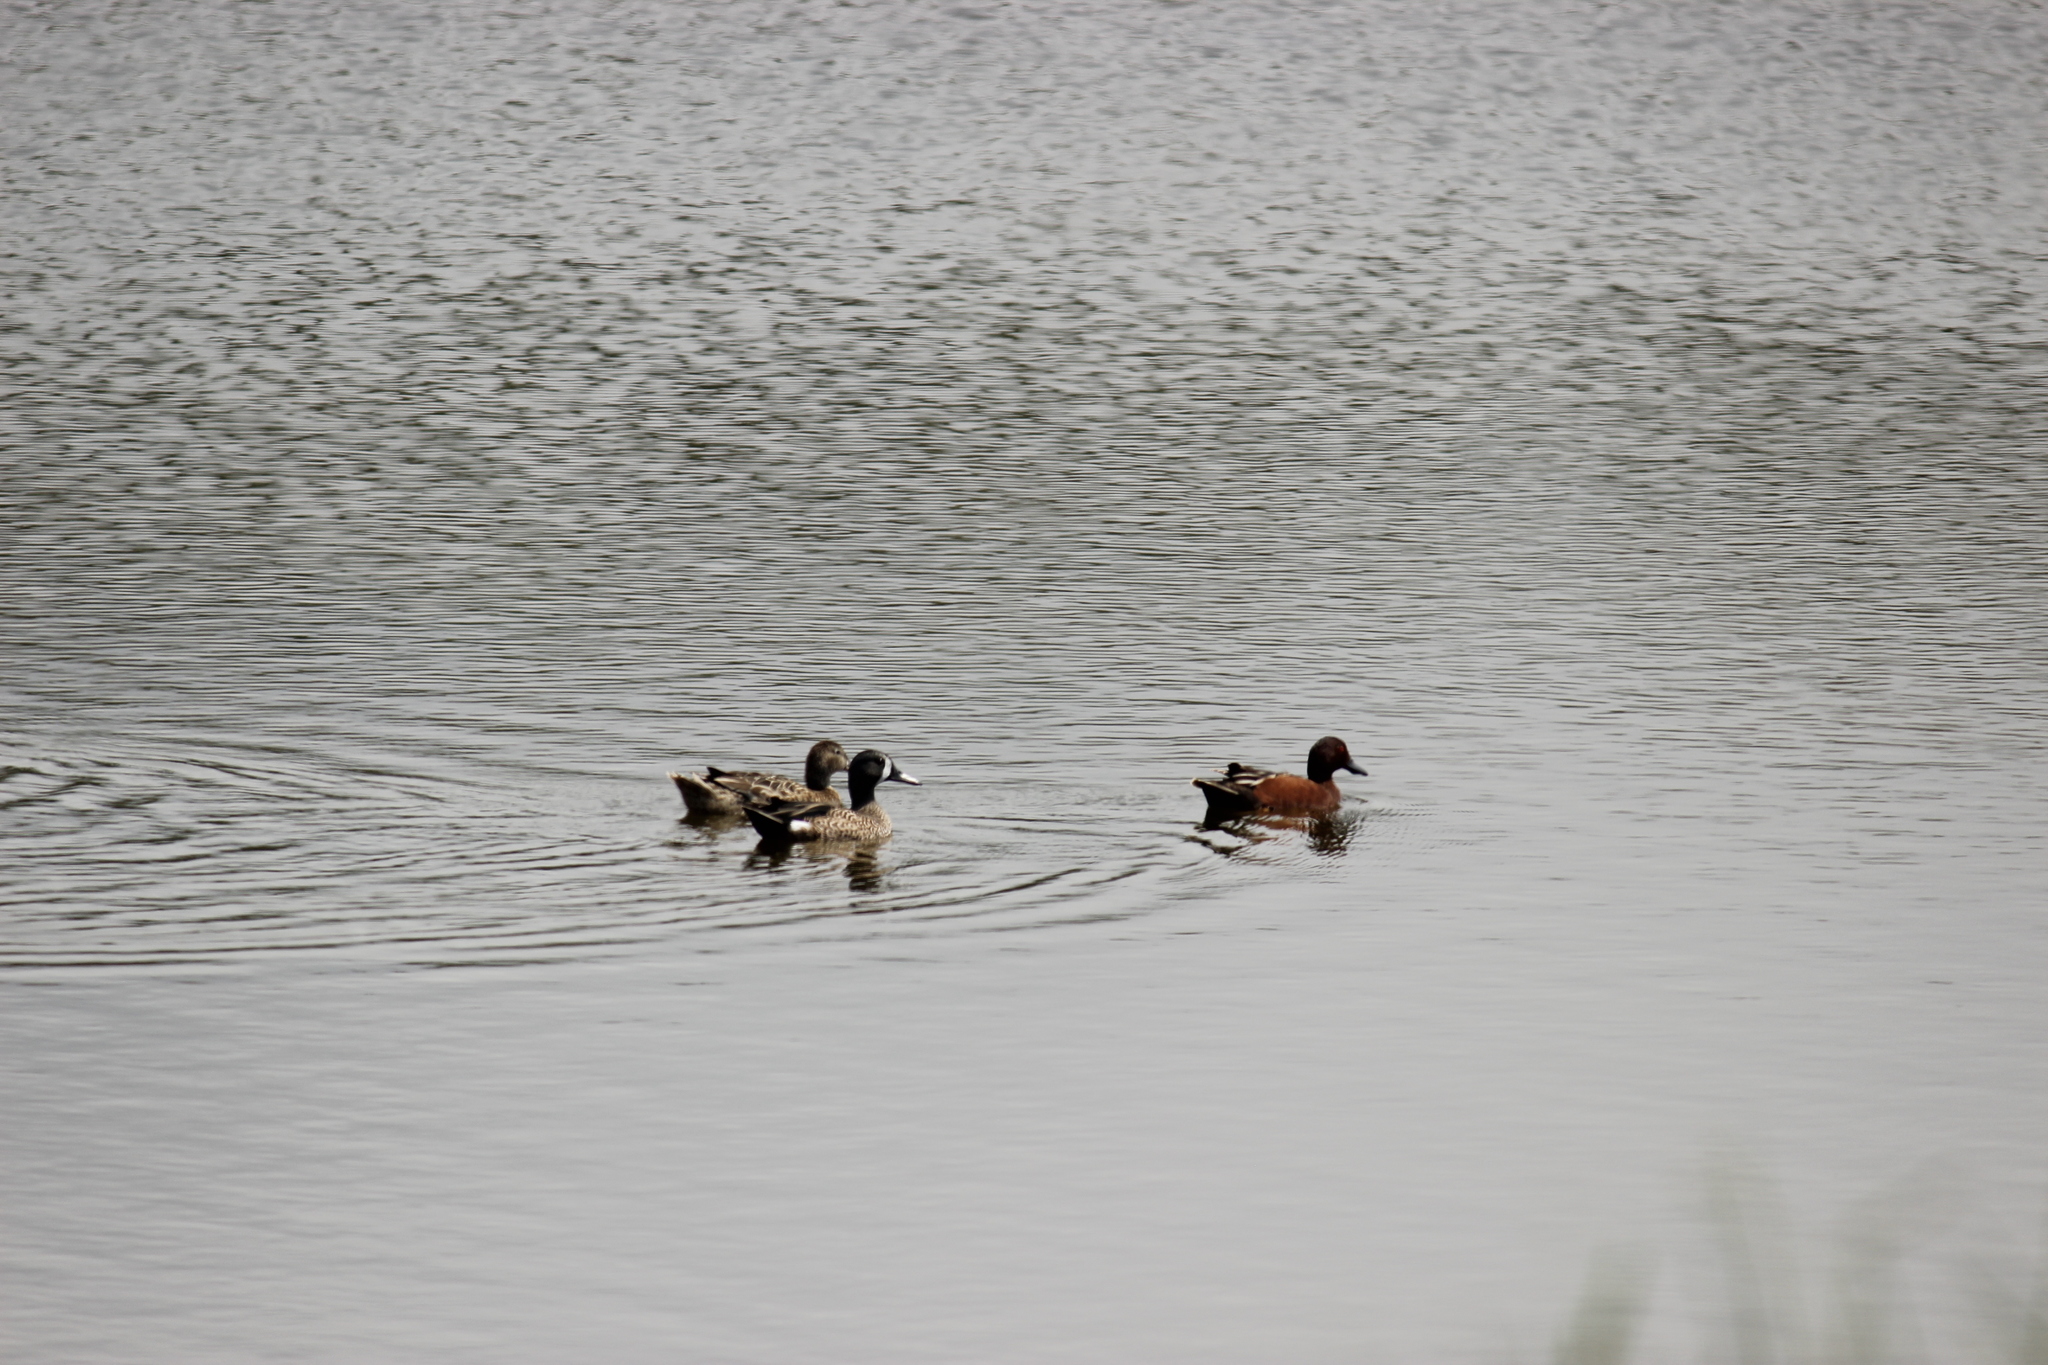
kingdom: Animalia
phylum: Chordata
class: Aves
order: Anseriformes
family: Anatidae
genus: Spatula
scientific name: Spatula discors
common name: Blue-winged teal
